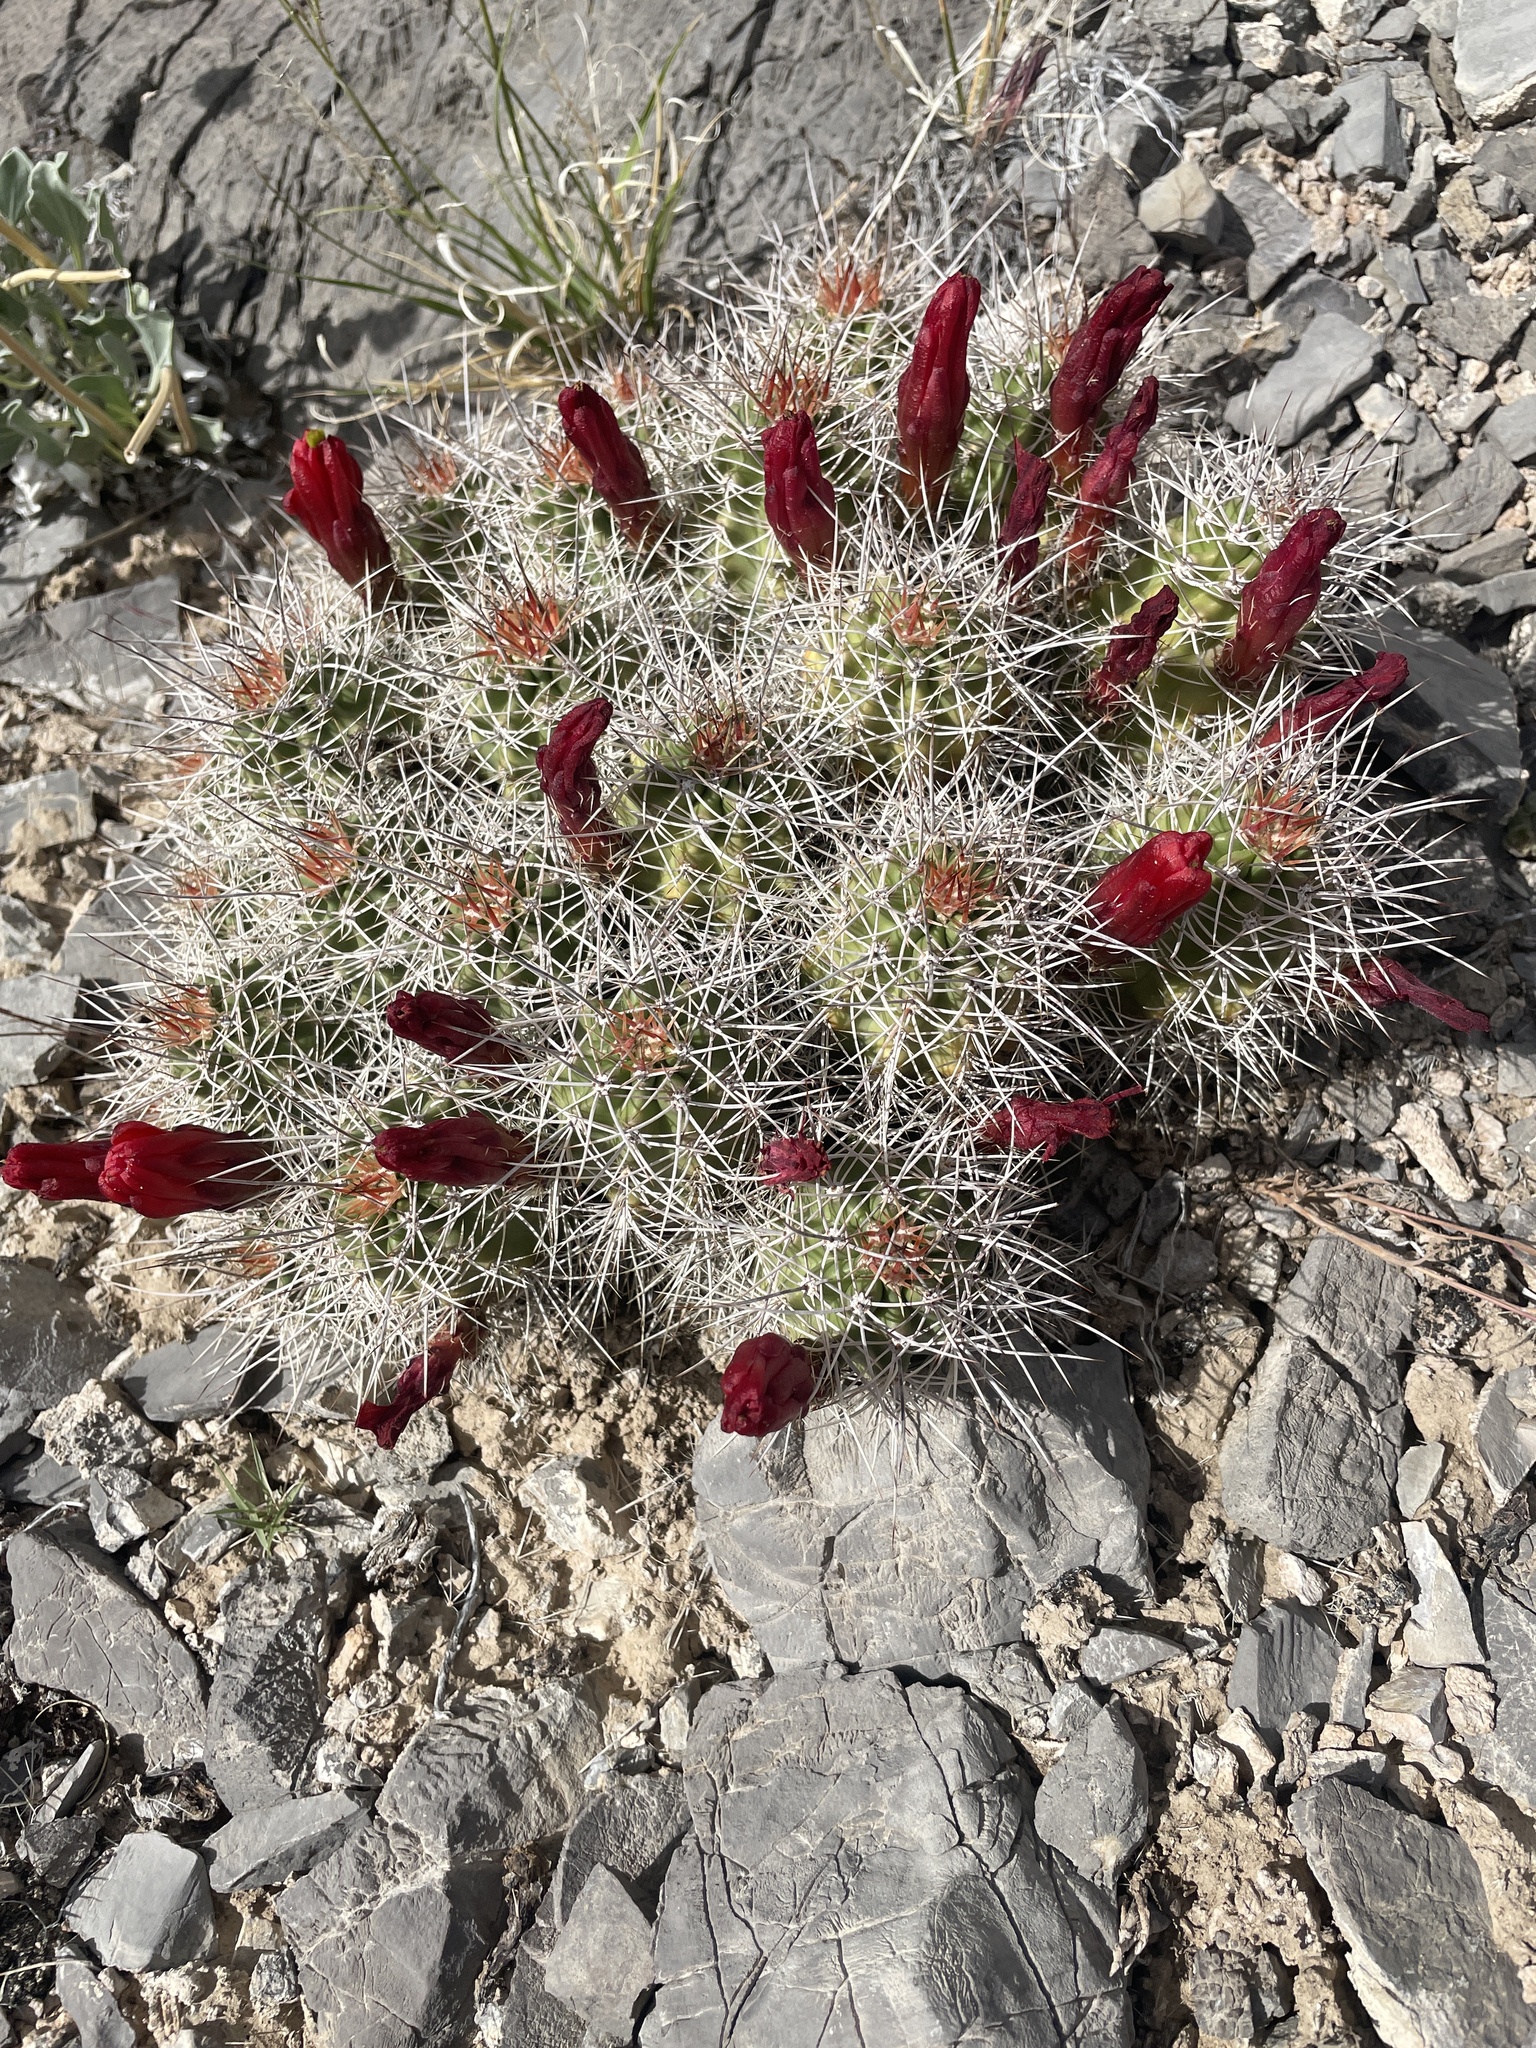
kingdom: Plantae
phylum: Tracheophyta
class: Magnoliopsida
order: Caryophyllales
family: Cactaceae
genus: Echinocereus
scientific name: Echinocereus triglochidiatus
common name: Claretcup hedgehog
